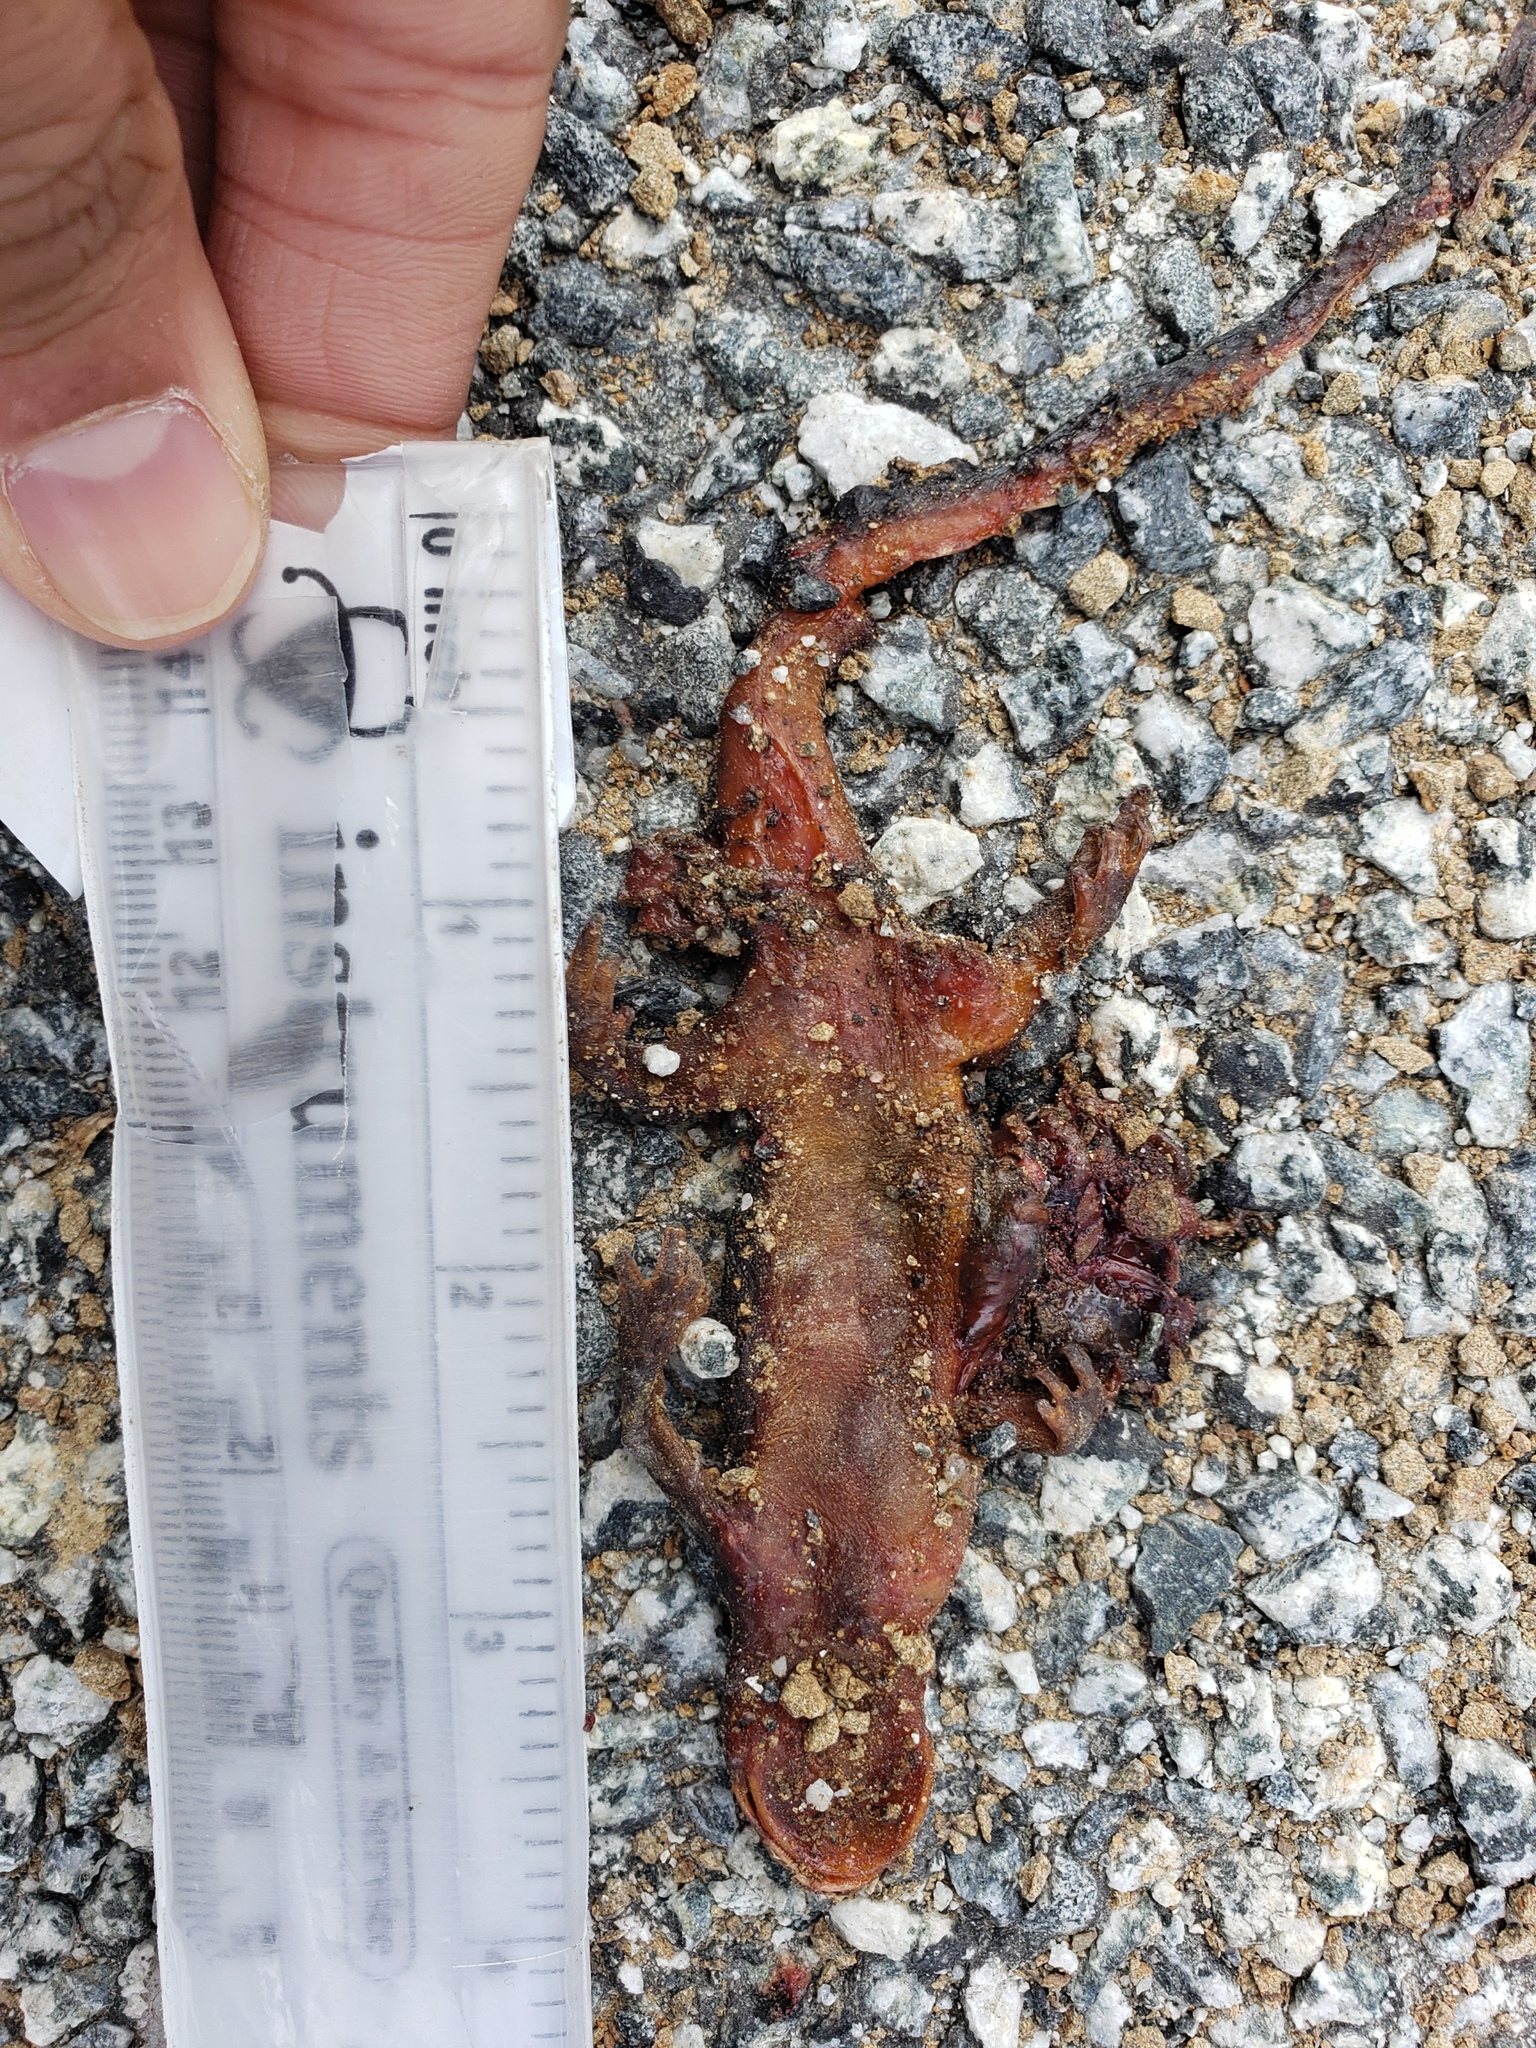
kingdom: Animalia
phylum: Chordata
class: Amphibia
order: Caudata
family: Salamandridae
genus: Taricha
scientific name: Taricha
